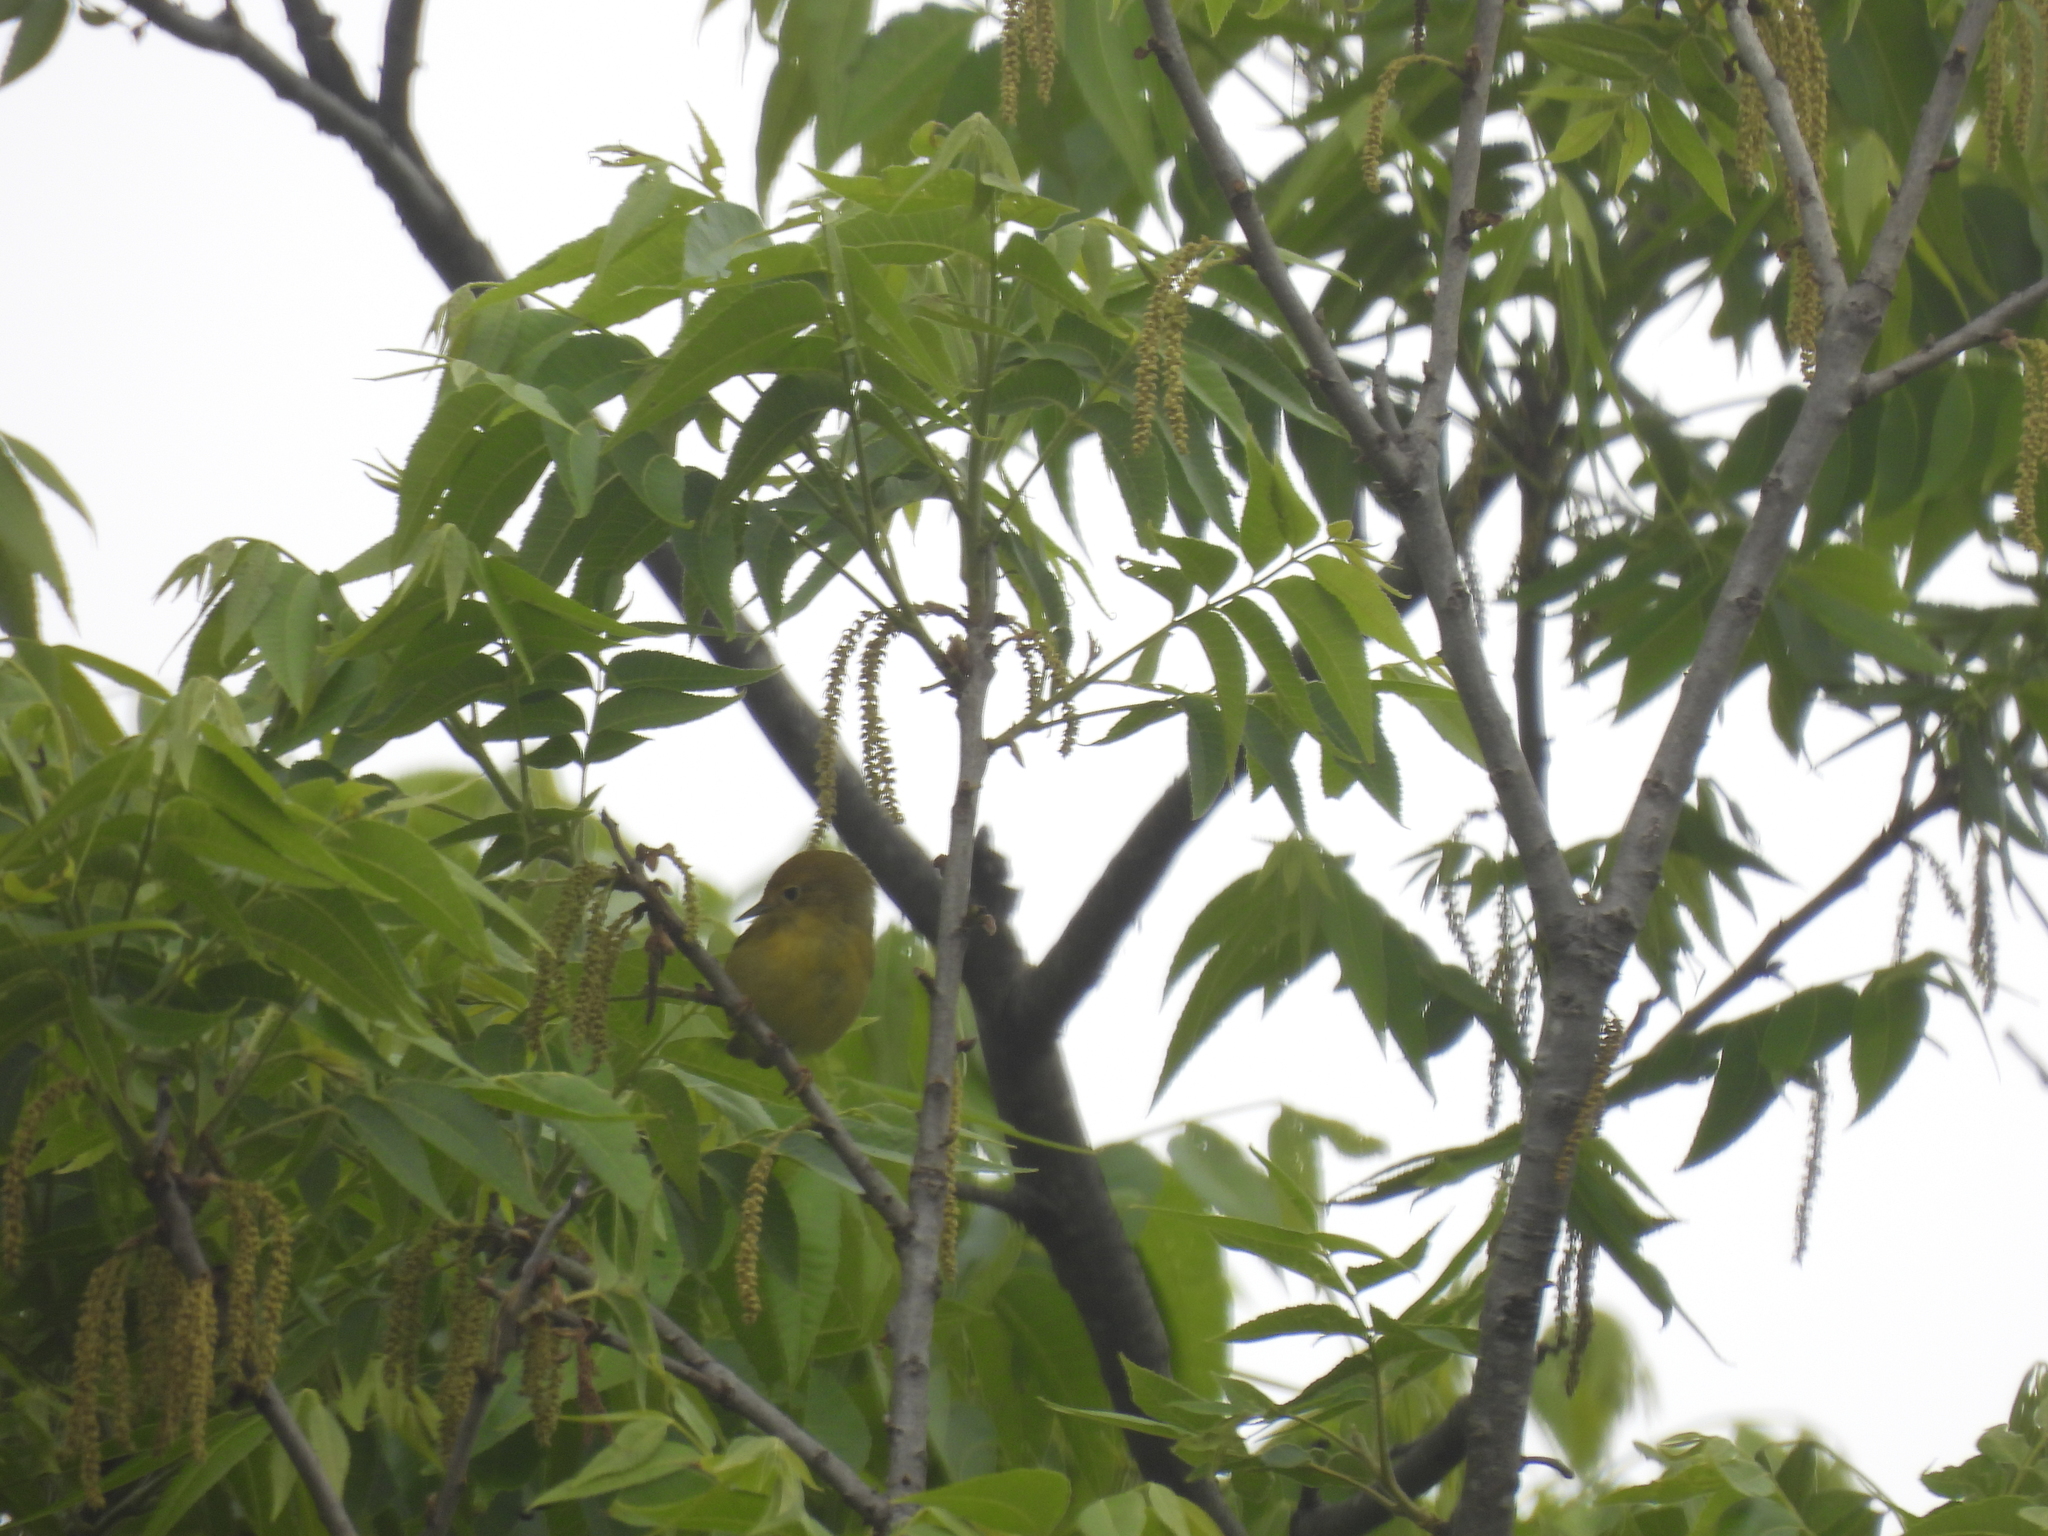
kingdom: Animalia
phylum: Chordata
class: Aves
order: Passeriformes
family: Parulidae
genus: Setophaga
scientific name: Setophaga petechia
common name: Yellow warbler
